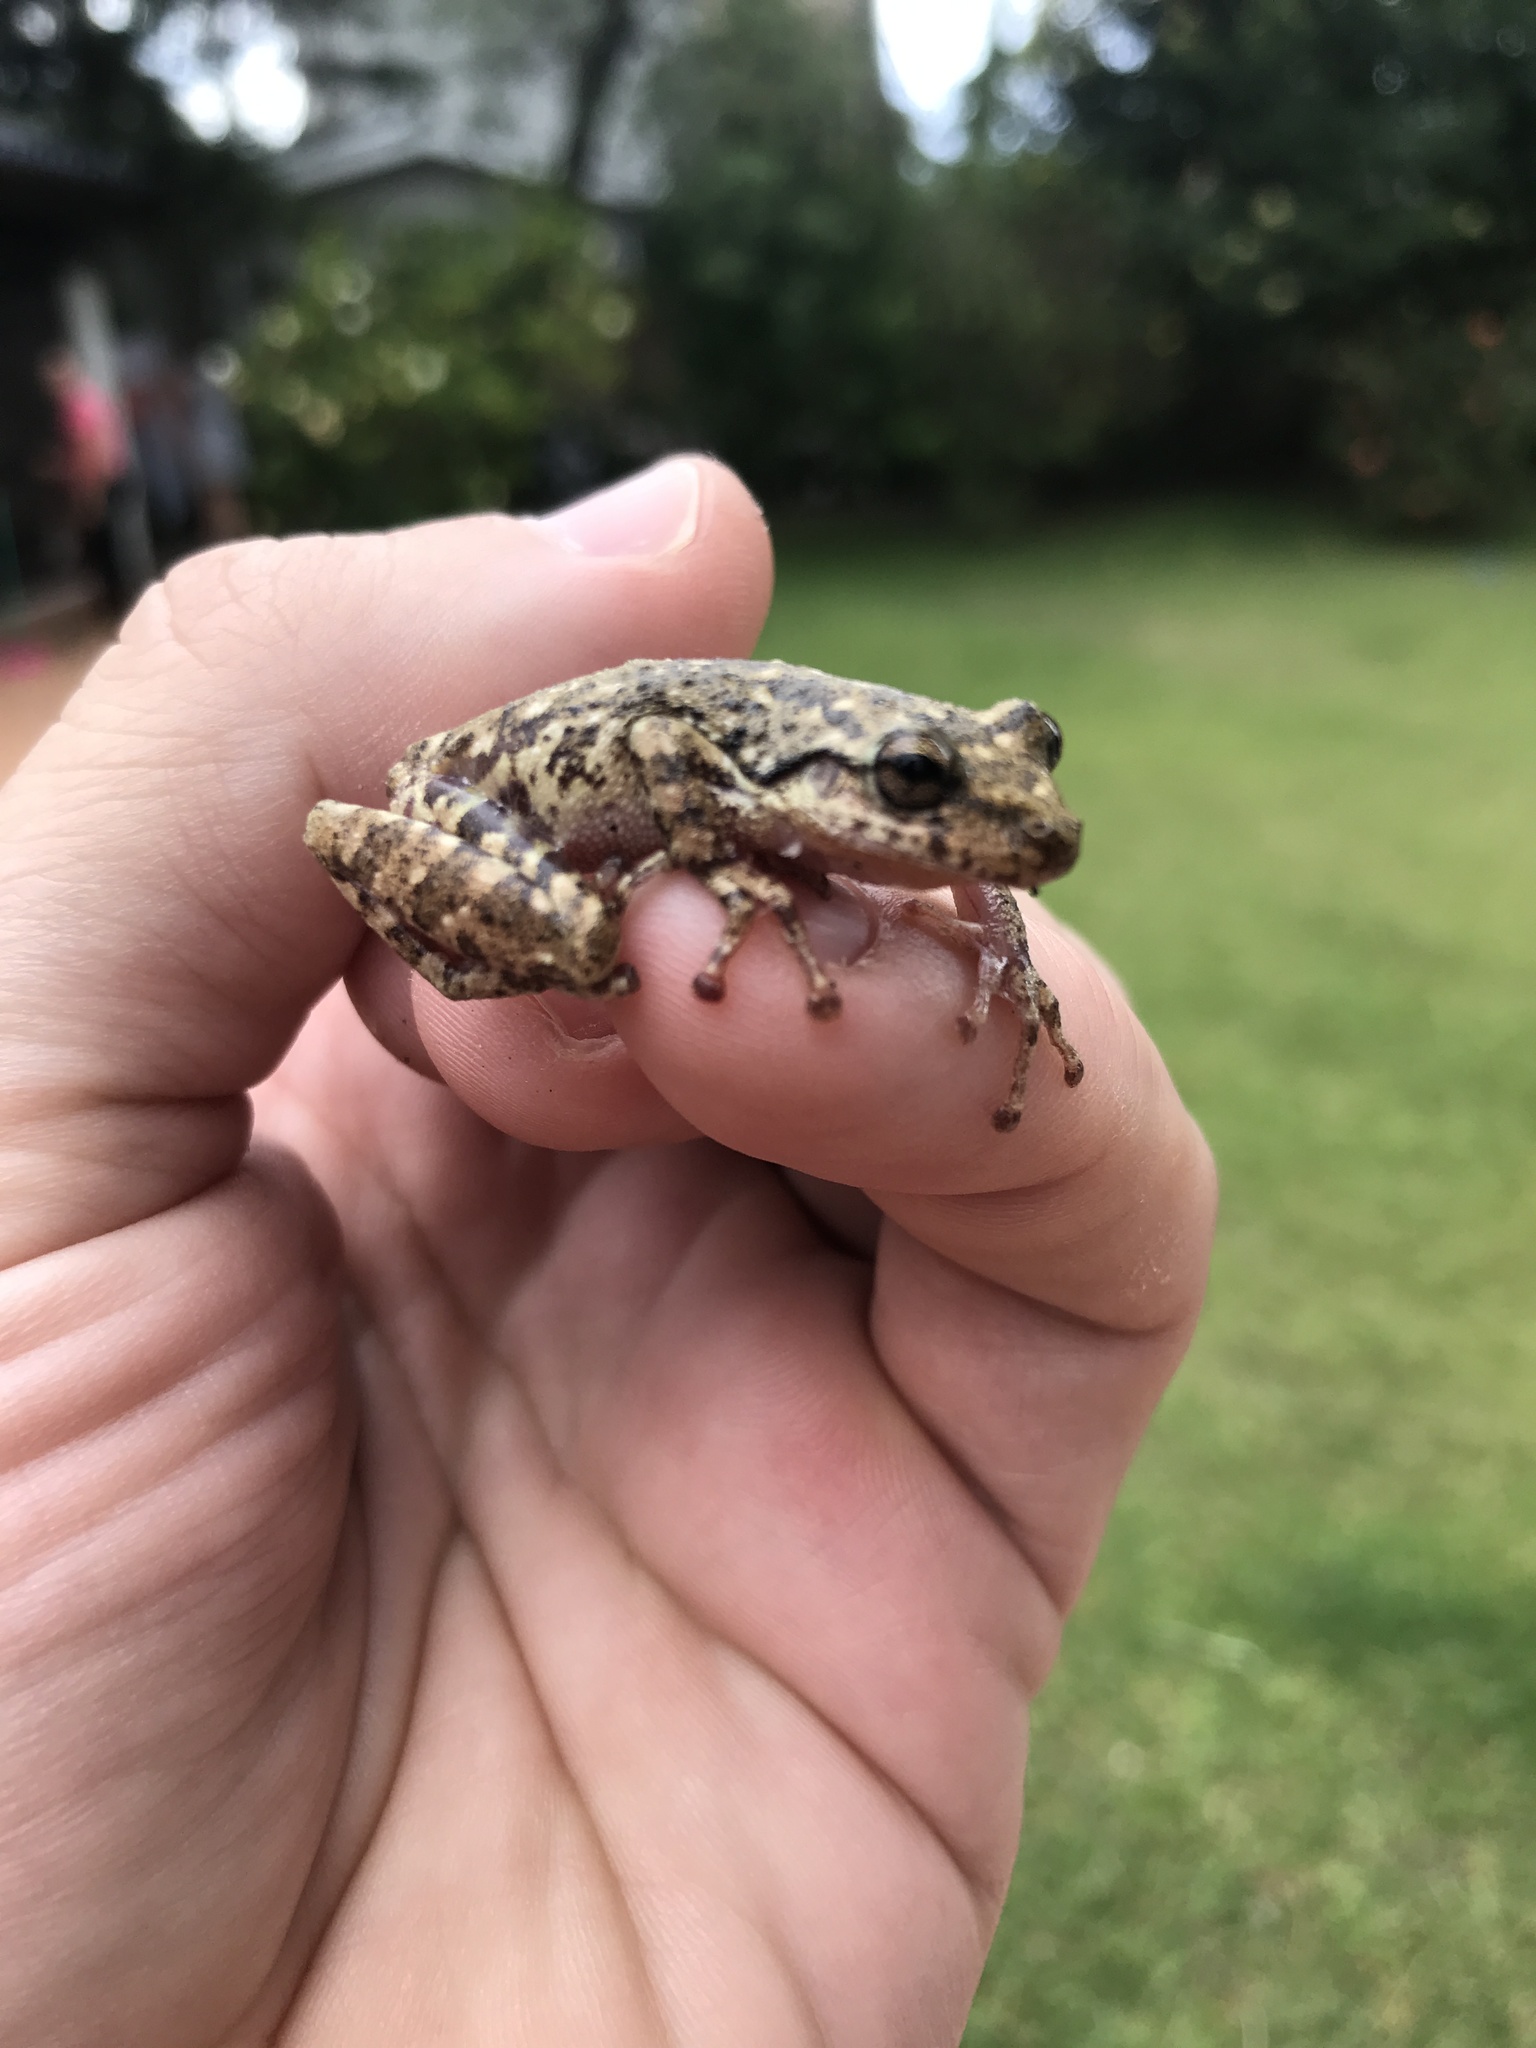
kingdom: Animalia
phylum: Chordata
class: Amphibia
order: Anura
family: Hylidae
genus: Scinax
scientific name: Scinax granulatus
